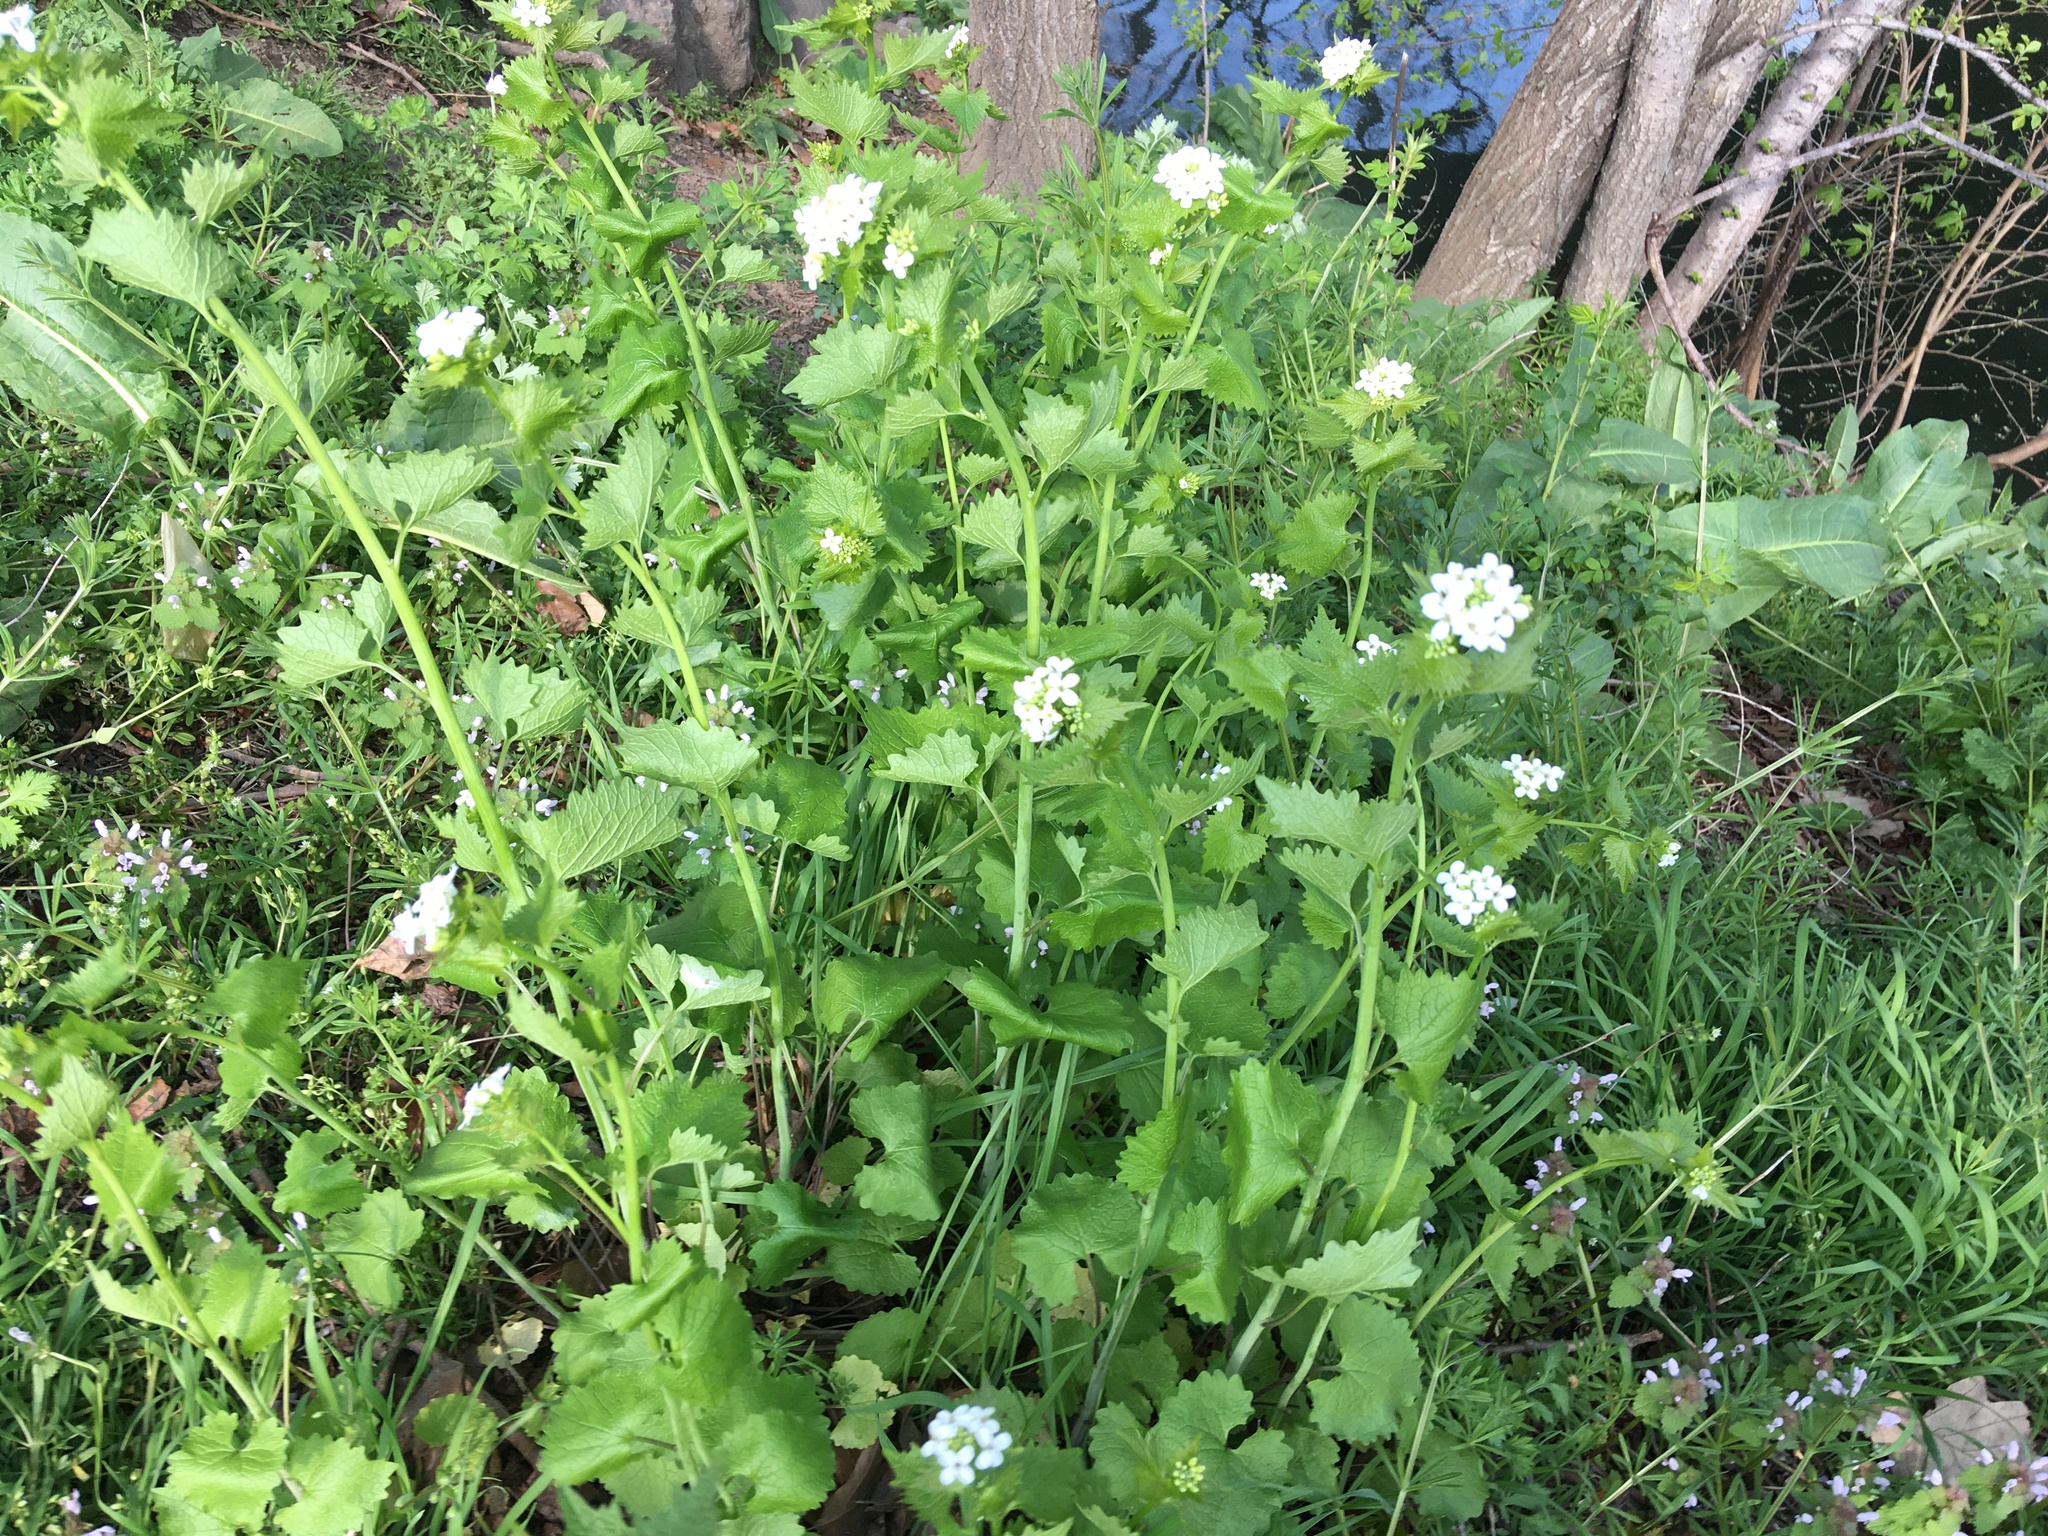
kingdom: Plantae
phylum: Tracheophyta
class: Magnoliopsida
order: Brassicales
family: Brassicaceae
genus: Alliaria
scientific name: Alliaria petiolata
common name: Garlic mustard
